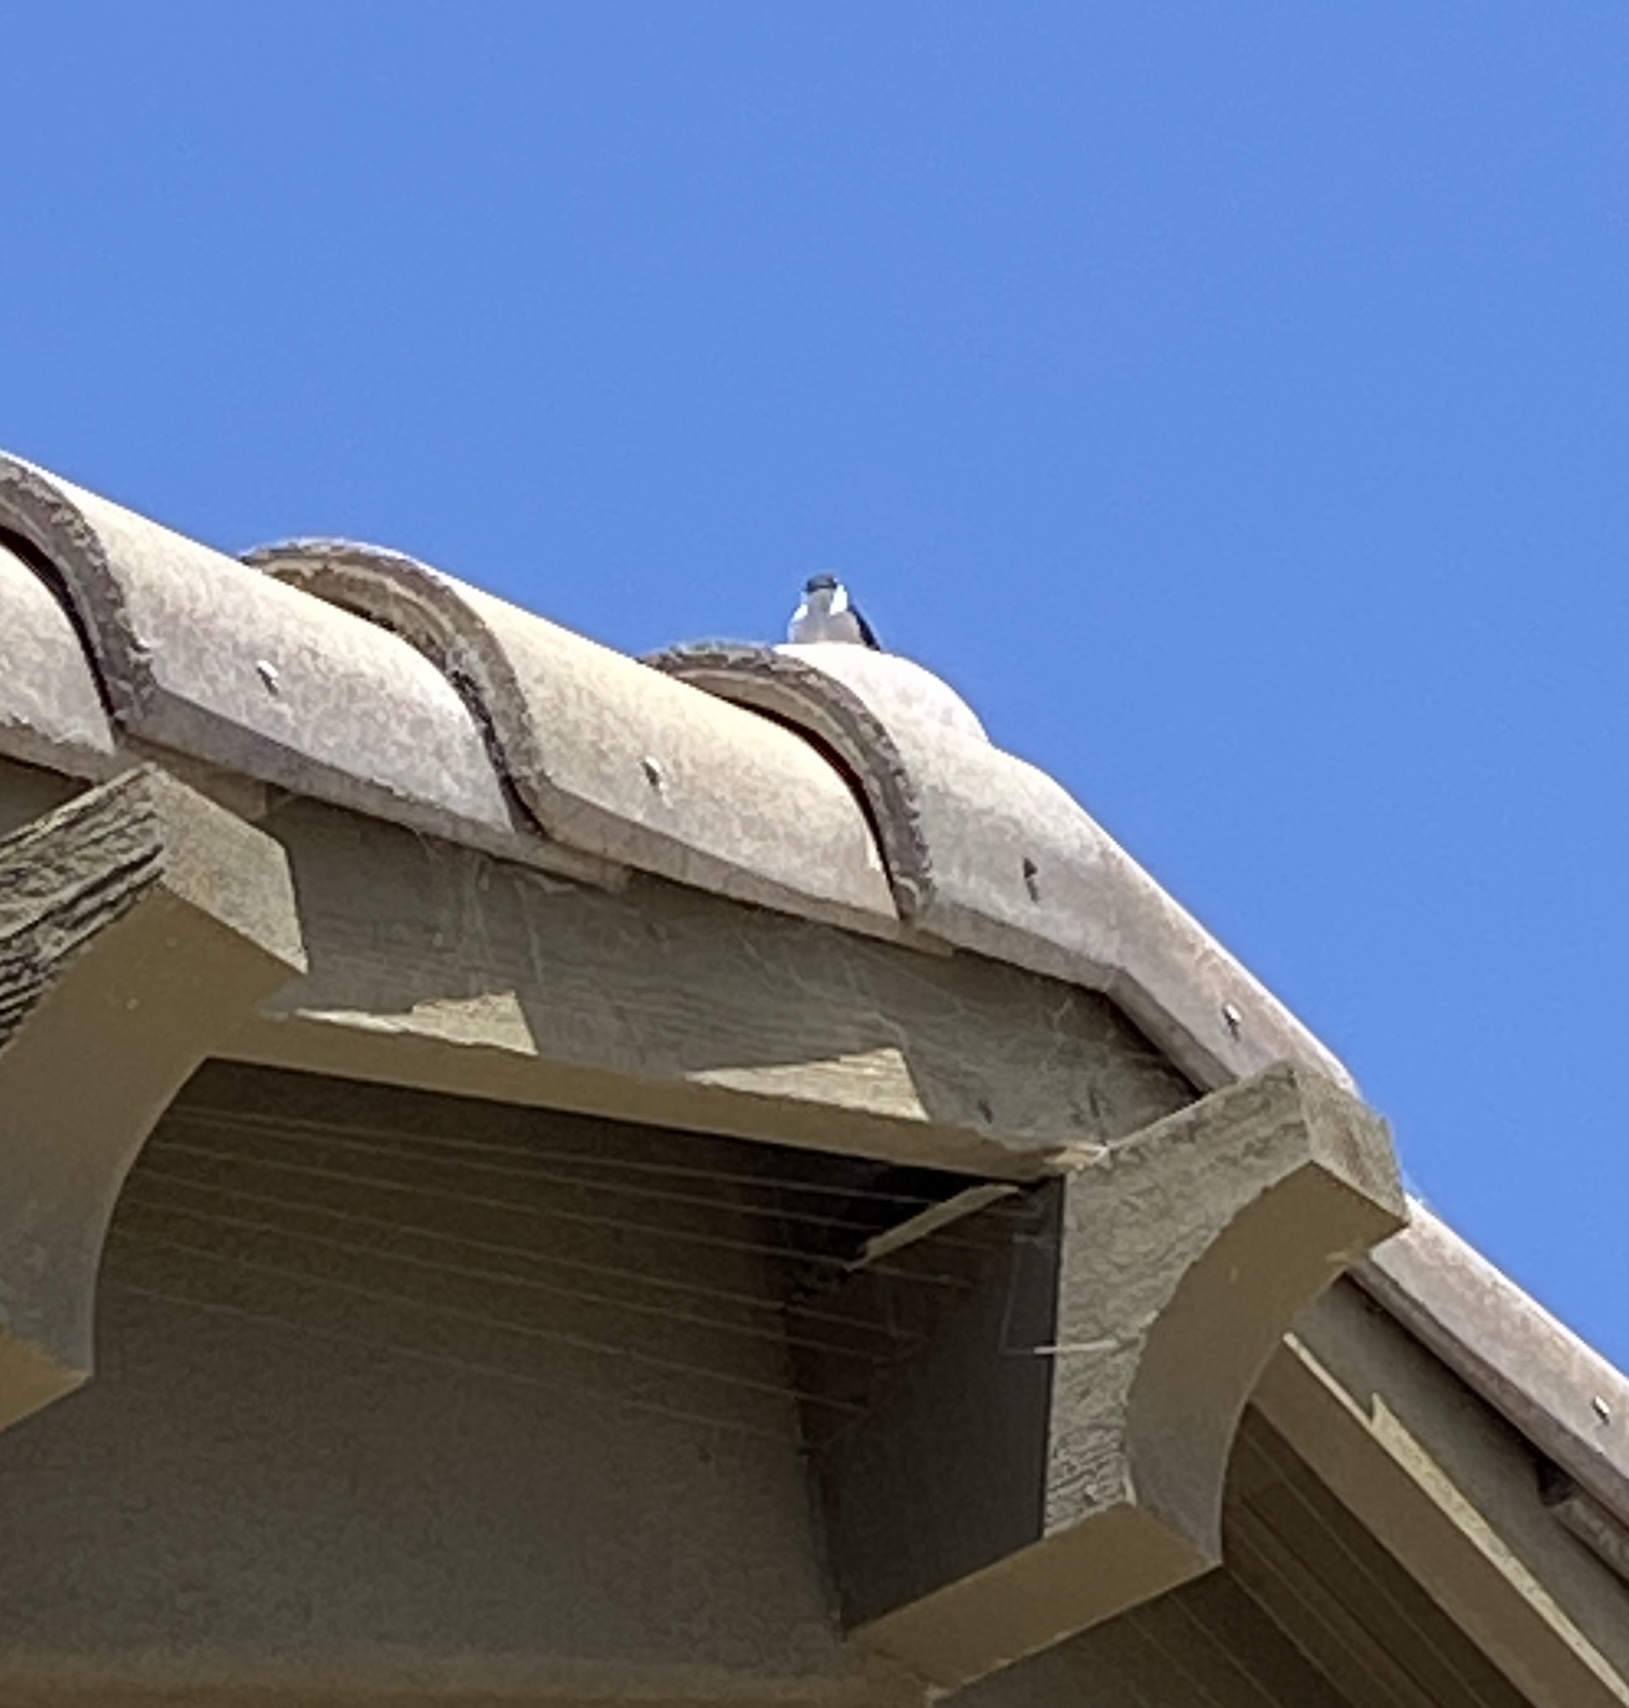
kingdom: Animalia
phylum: Chordata
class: Aves
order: Passeriformes
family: Hirundinidae
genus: Tachycineta
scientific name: Tachycineta bicolor
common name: Tree swallow
